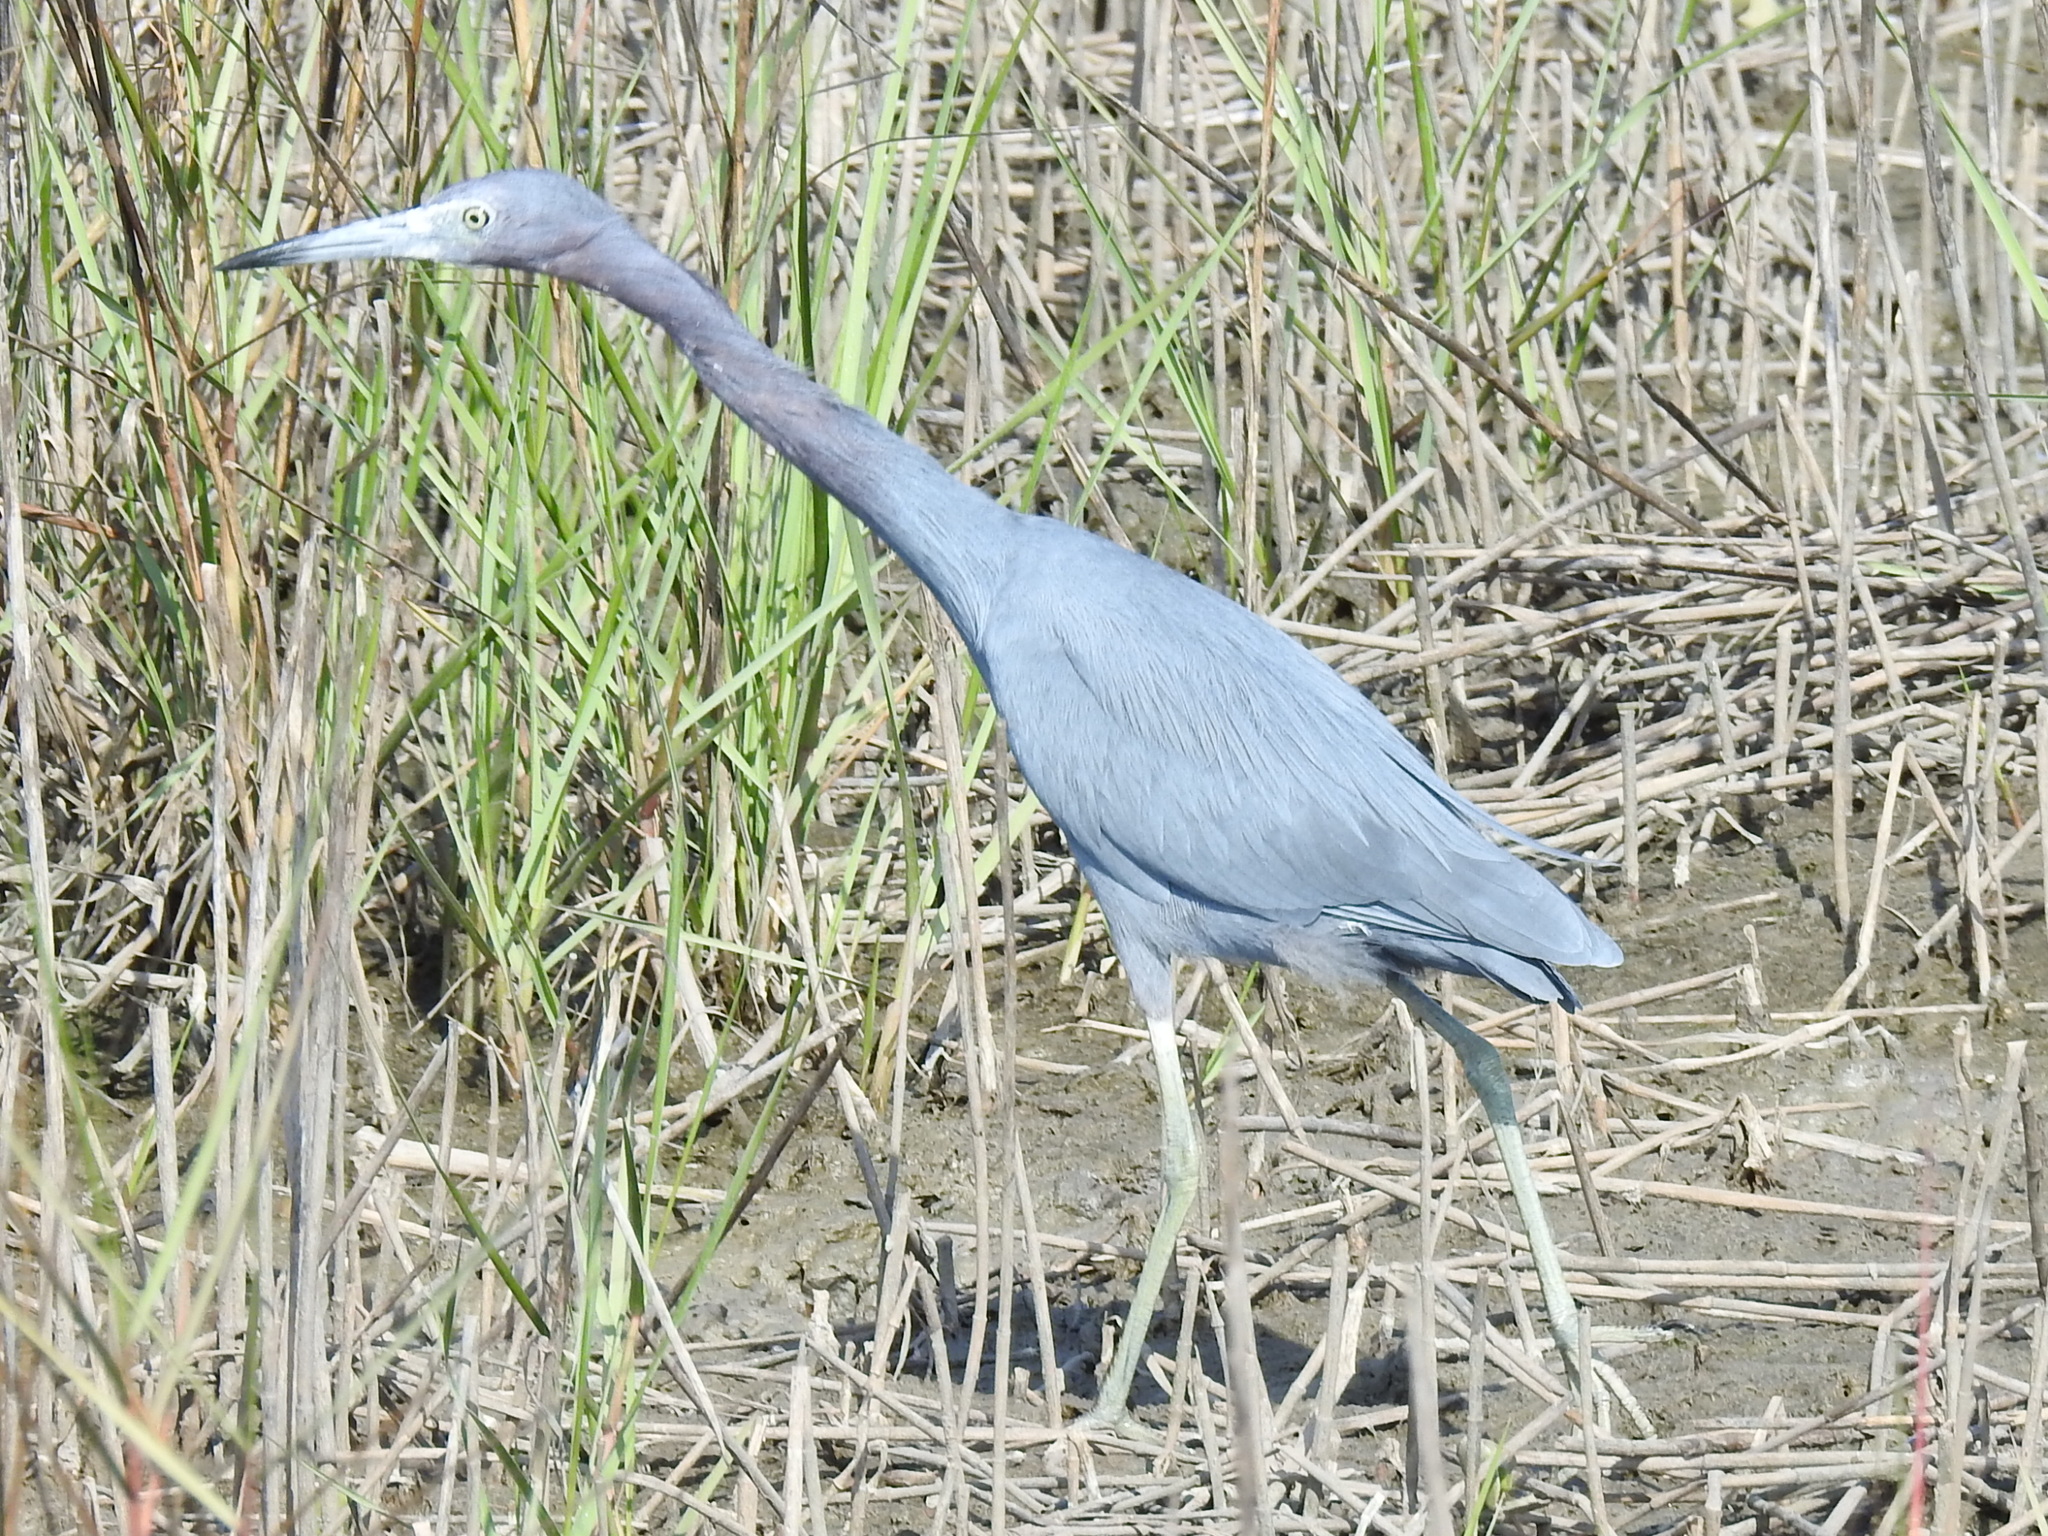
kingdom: Animalia
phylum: Chordata
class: Aves
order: Pelecaniformes
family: Ardeidae
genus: Egretta
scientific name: Egretta caerulea
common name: Little blue heron
